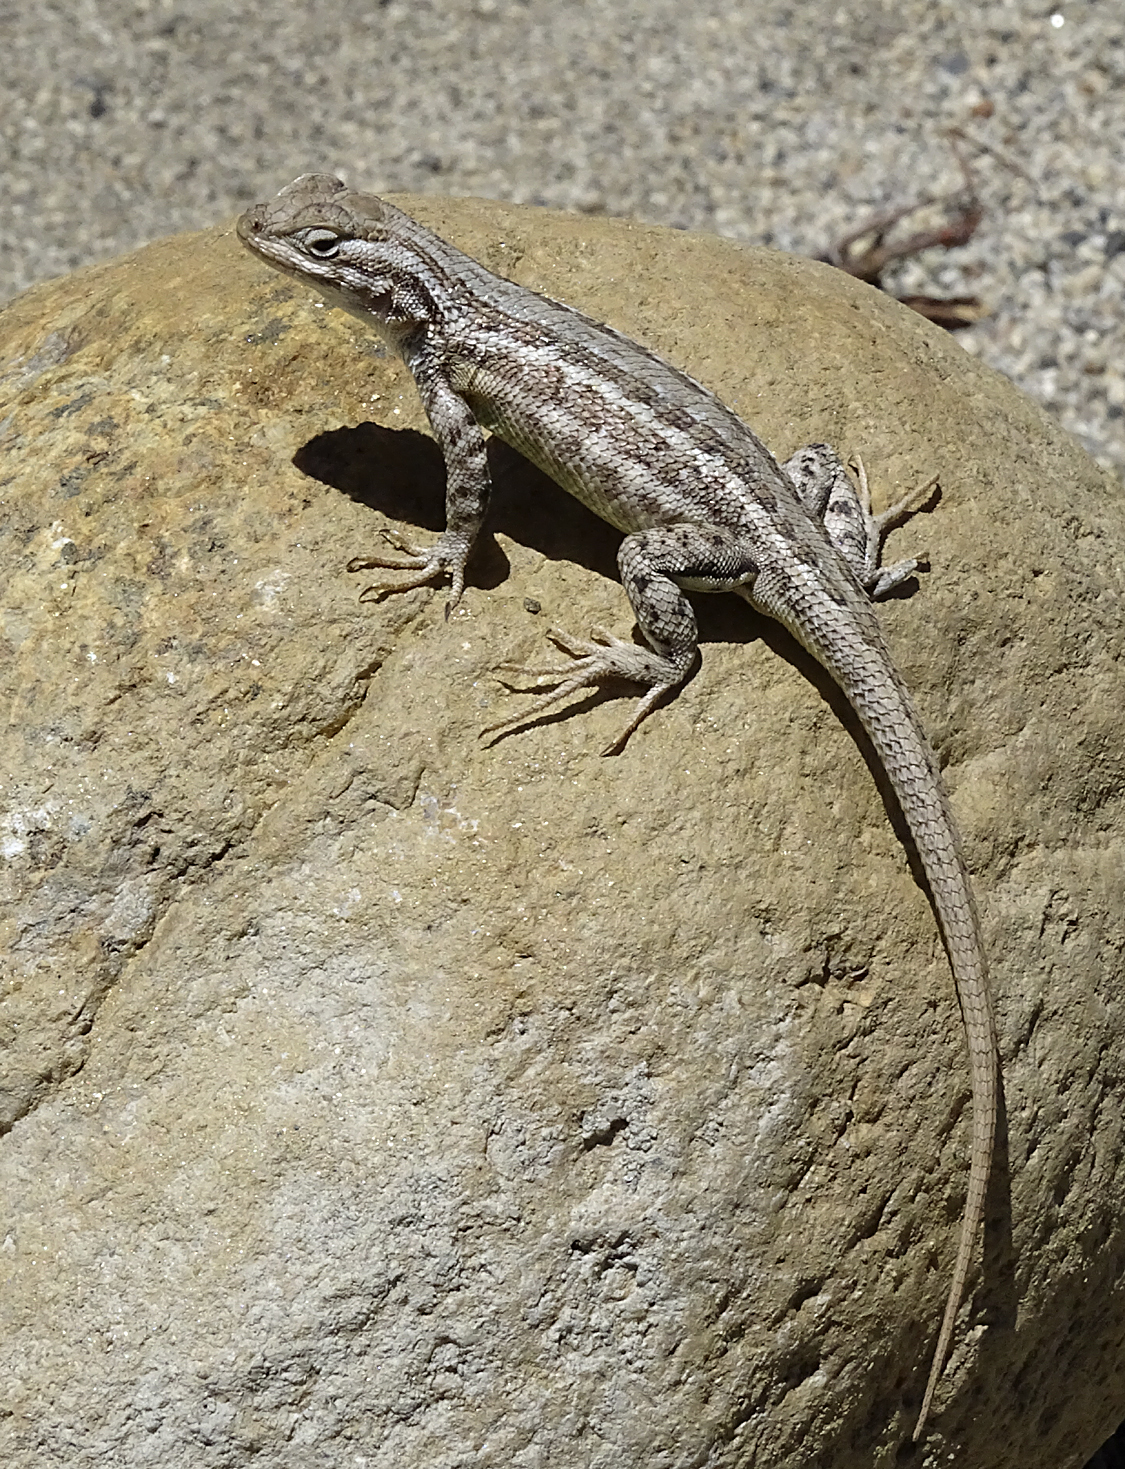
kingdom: Animalia
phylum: Chordata
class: Squamata
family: Phrynosomatidae
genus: Sceloporus
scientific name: Sceloporus graciosus
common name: Sagebrush lizard
